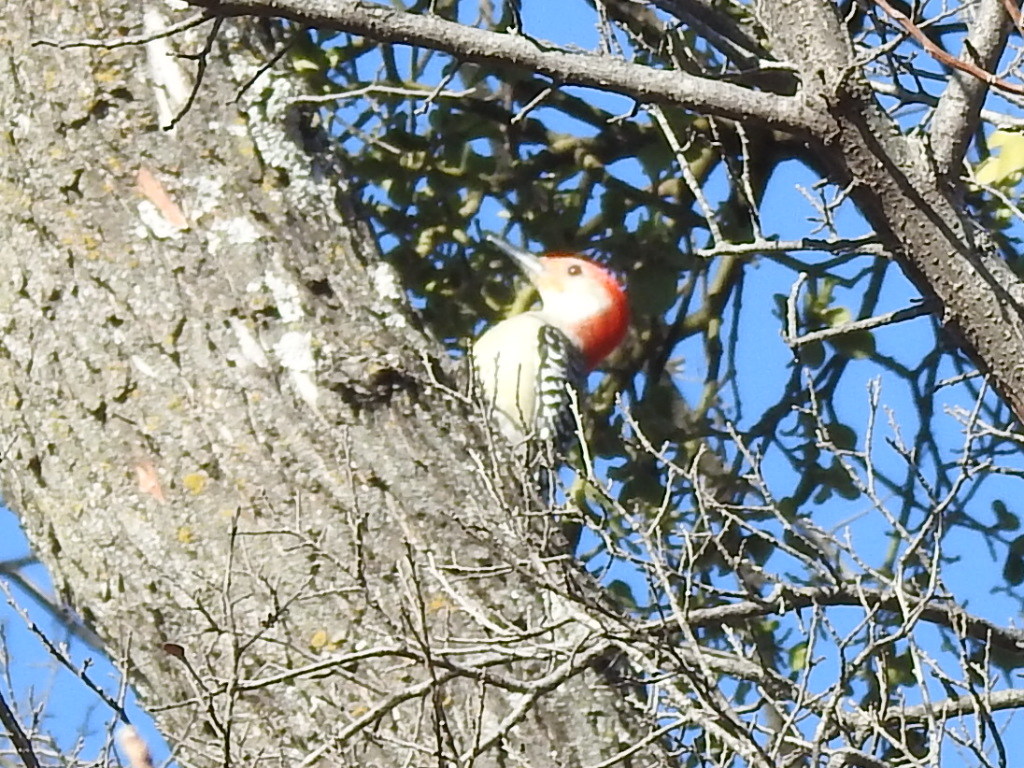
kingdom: Animalia
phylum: Chordata
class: Aves
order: Piciformes
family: Picidae
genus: Melanerpes
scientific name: Melanerpes carolinus
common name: Red-bellied woodpecker
